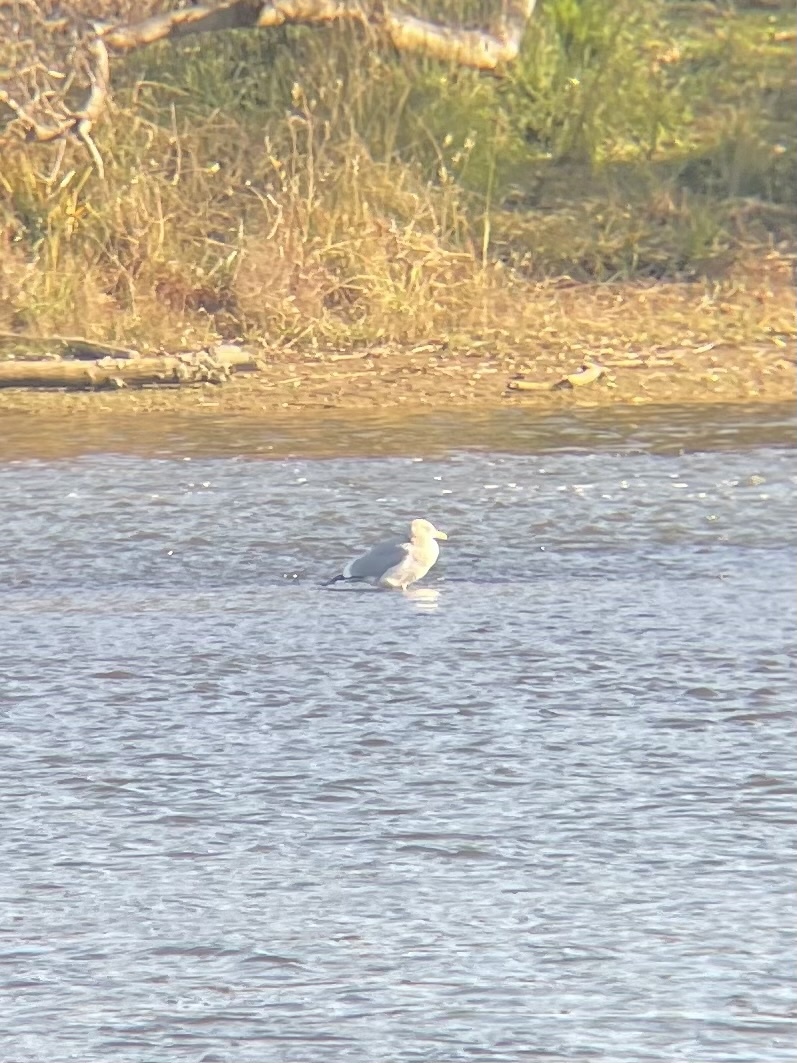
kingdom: Animalia
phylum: Chordata
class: Aves
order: Charadriiformes
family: Laridae
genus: Larus
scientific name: Larus argentatus
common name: Herring gull
